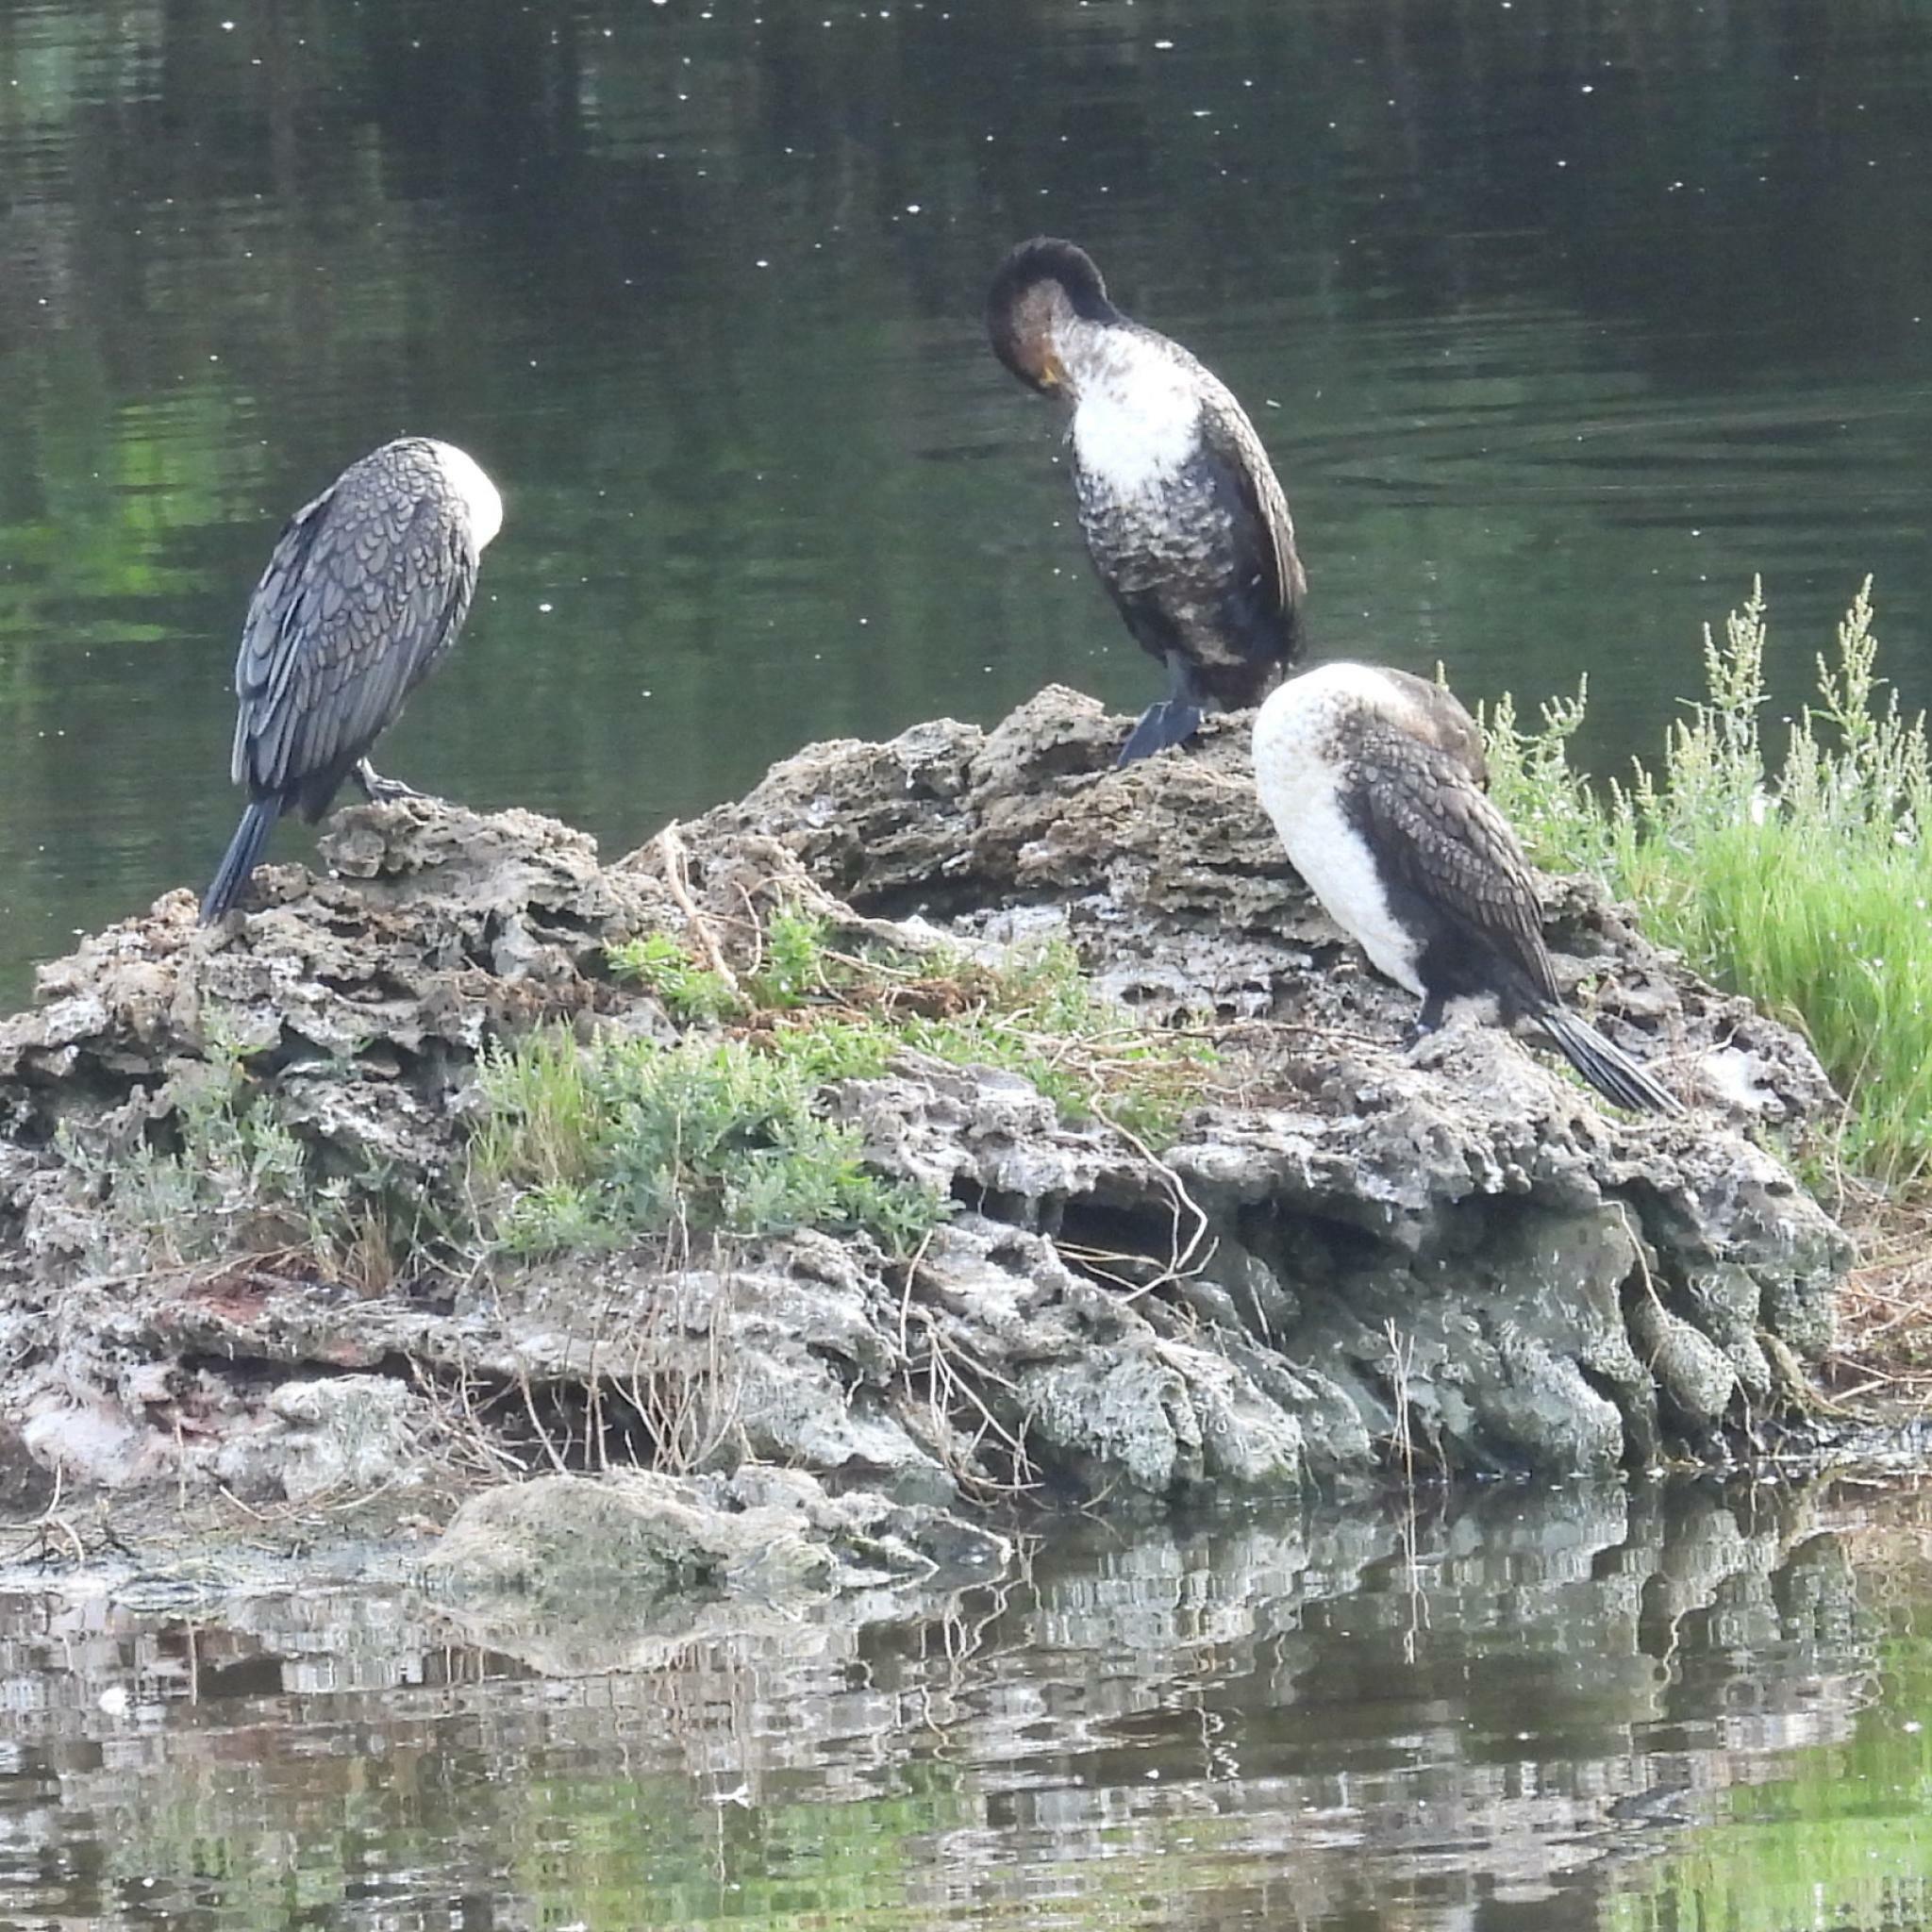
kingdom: Animalia
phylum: Chordata
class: Aves
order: Suliformes
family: Phalacrocoracidae
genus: Phalacrocorax
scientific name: Phalacrocorax carbo
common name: Great cormorant
